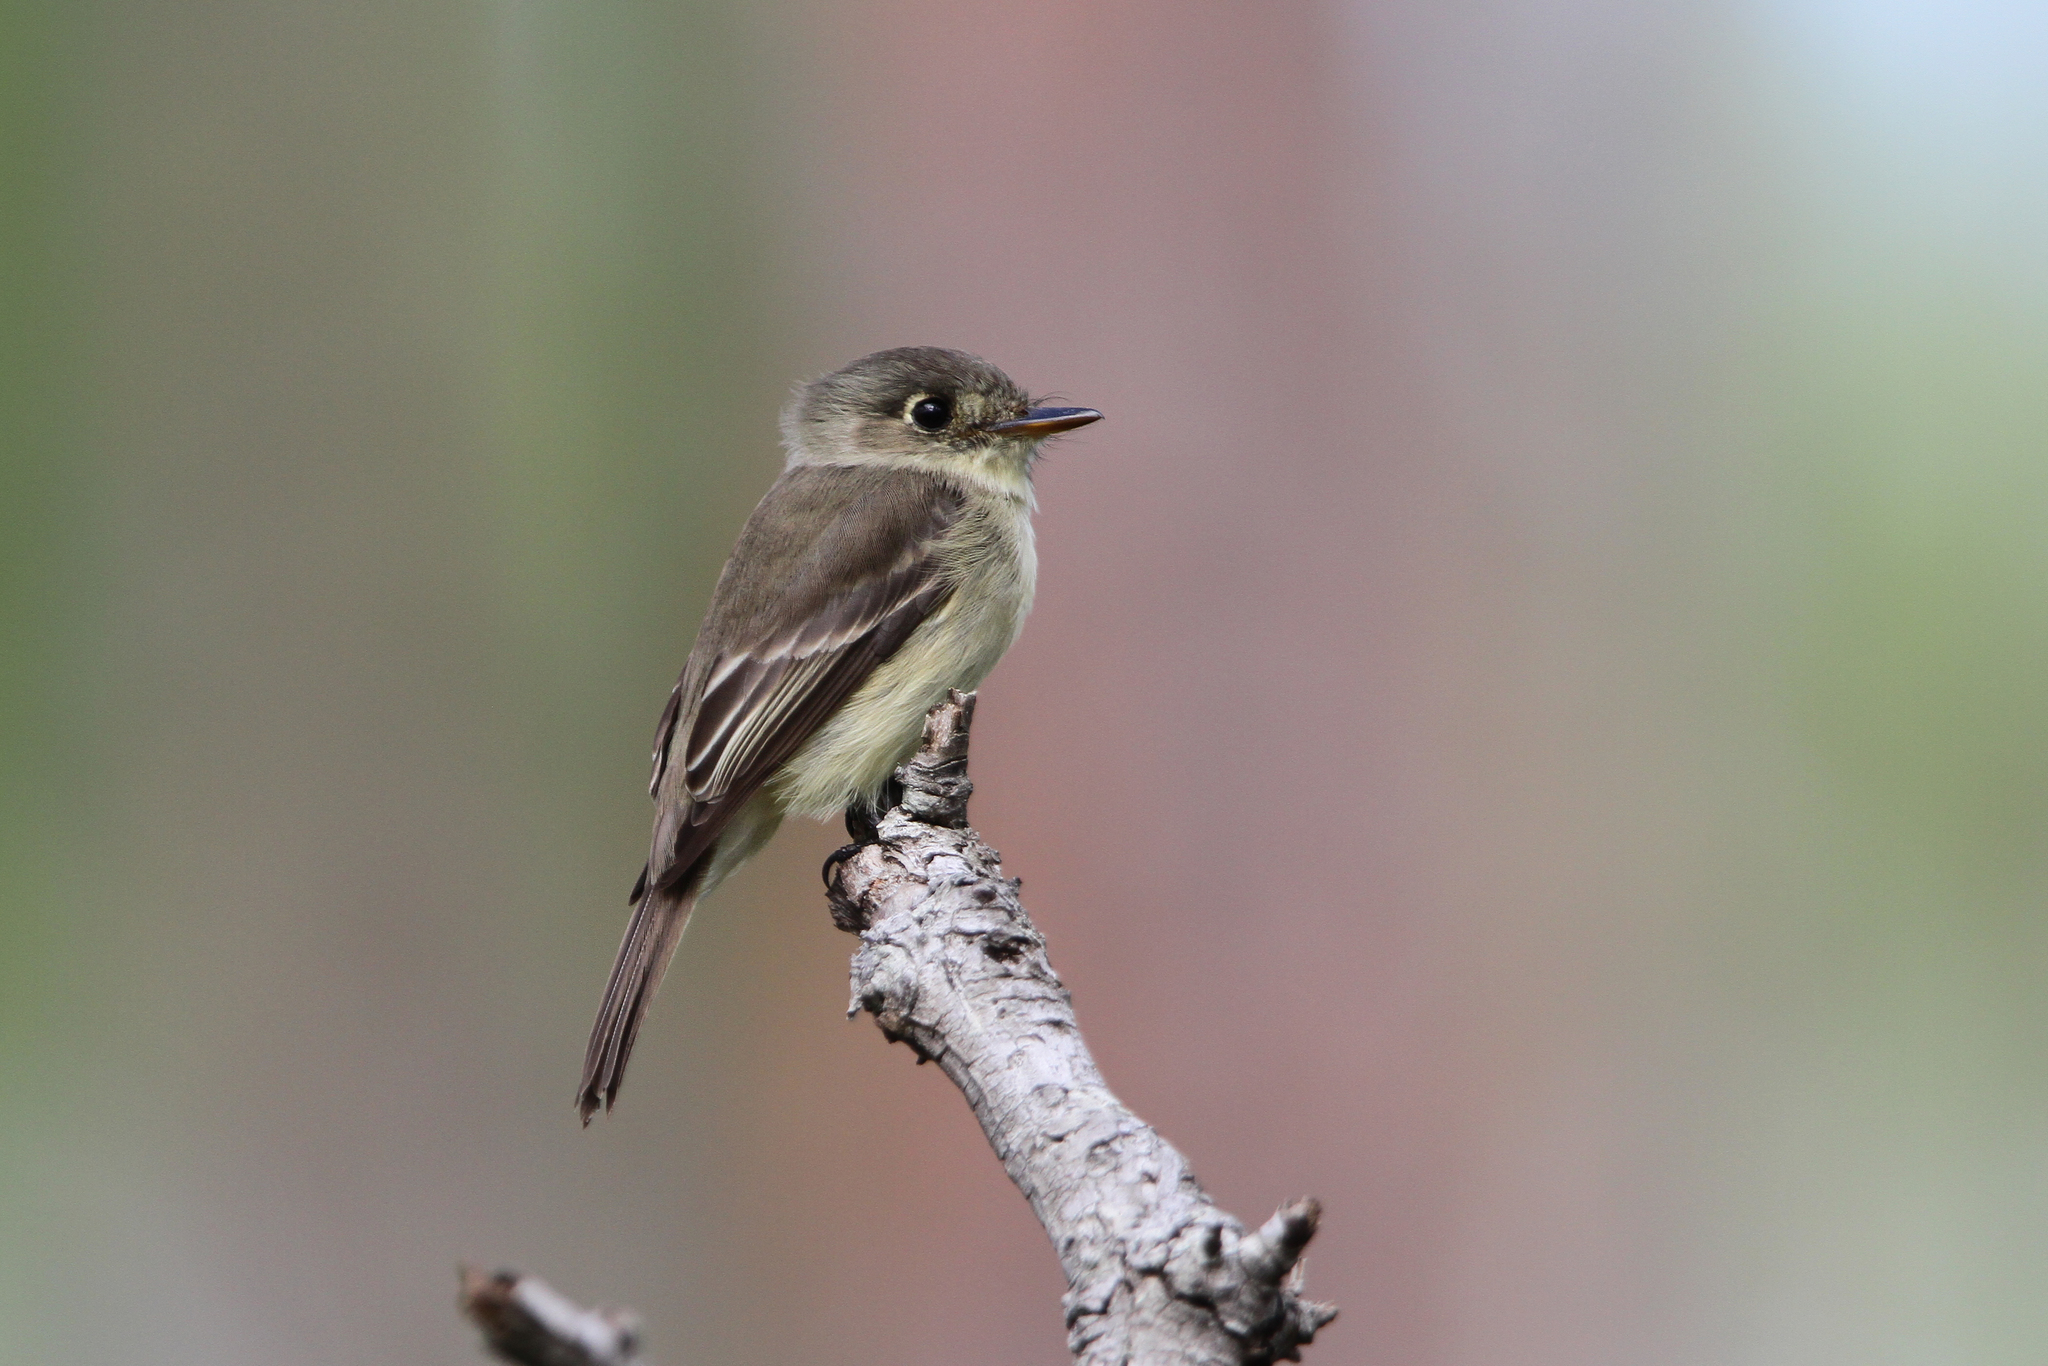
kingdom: Animalia
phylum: Chordata
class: Aves
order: Passeriformes
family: Tyrannidae
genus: Contopus
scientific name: Contopus caribaeus
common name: Cuban pewee
